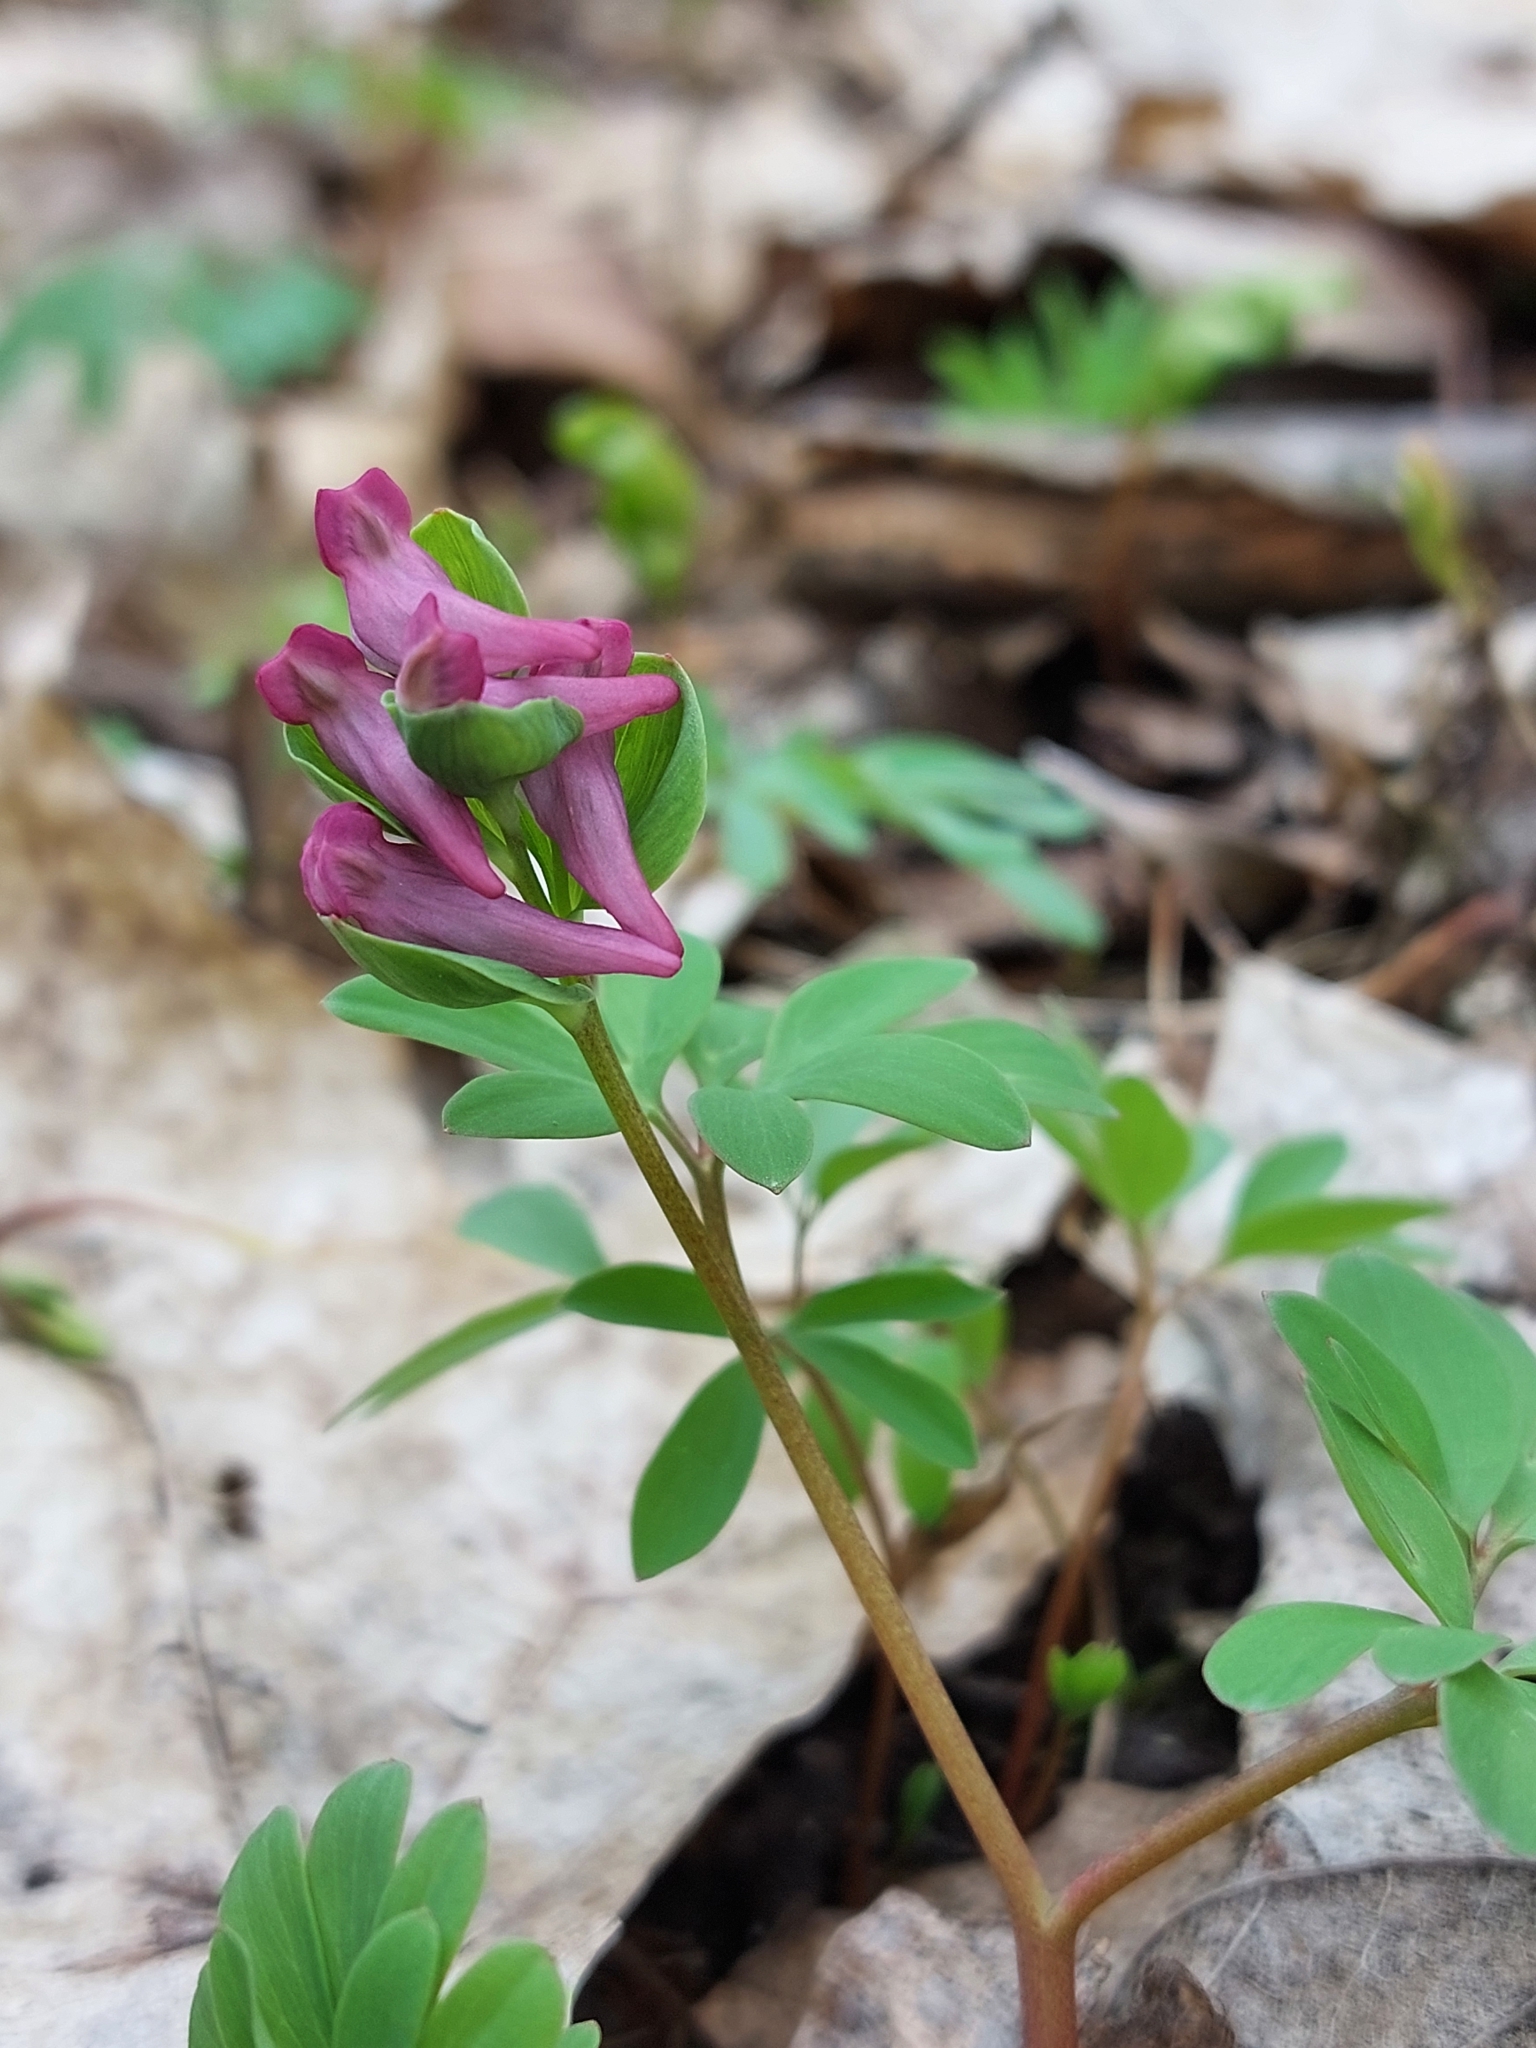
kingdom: Plantae
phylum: Tracheophyta
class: Magnoliopsida
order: Ranunculales
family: Papaveraceae
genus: Corydalis
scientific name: Corydalis intermedia
